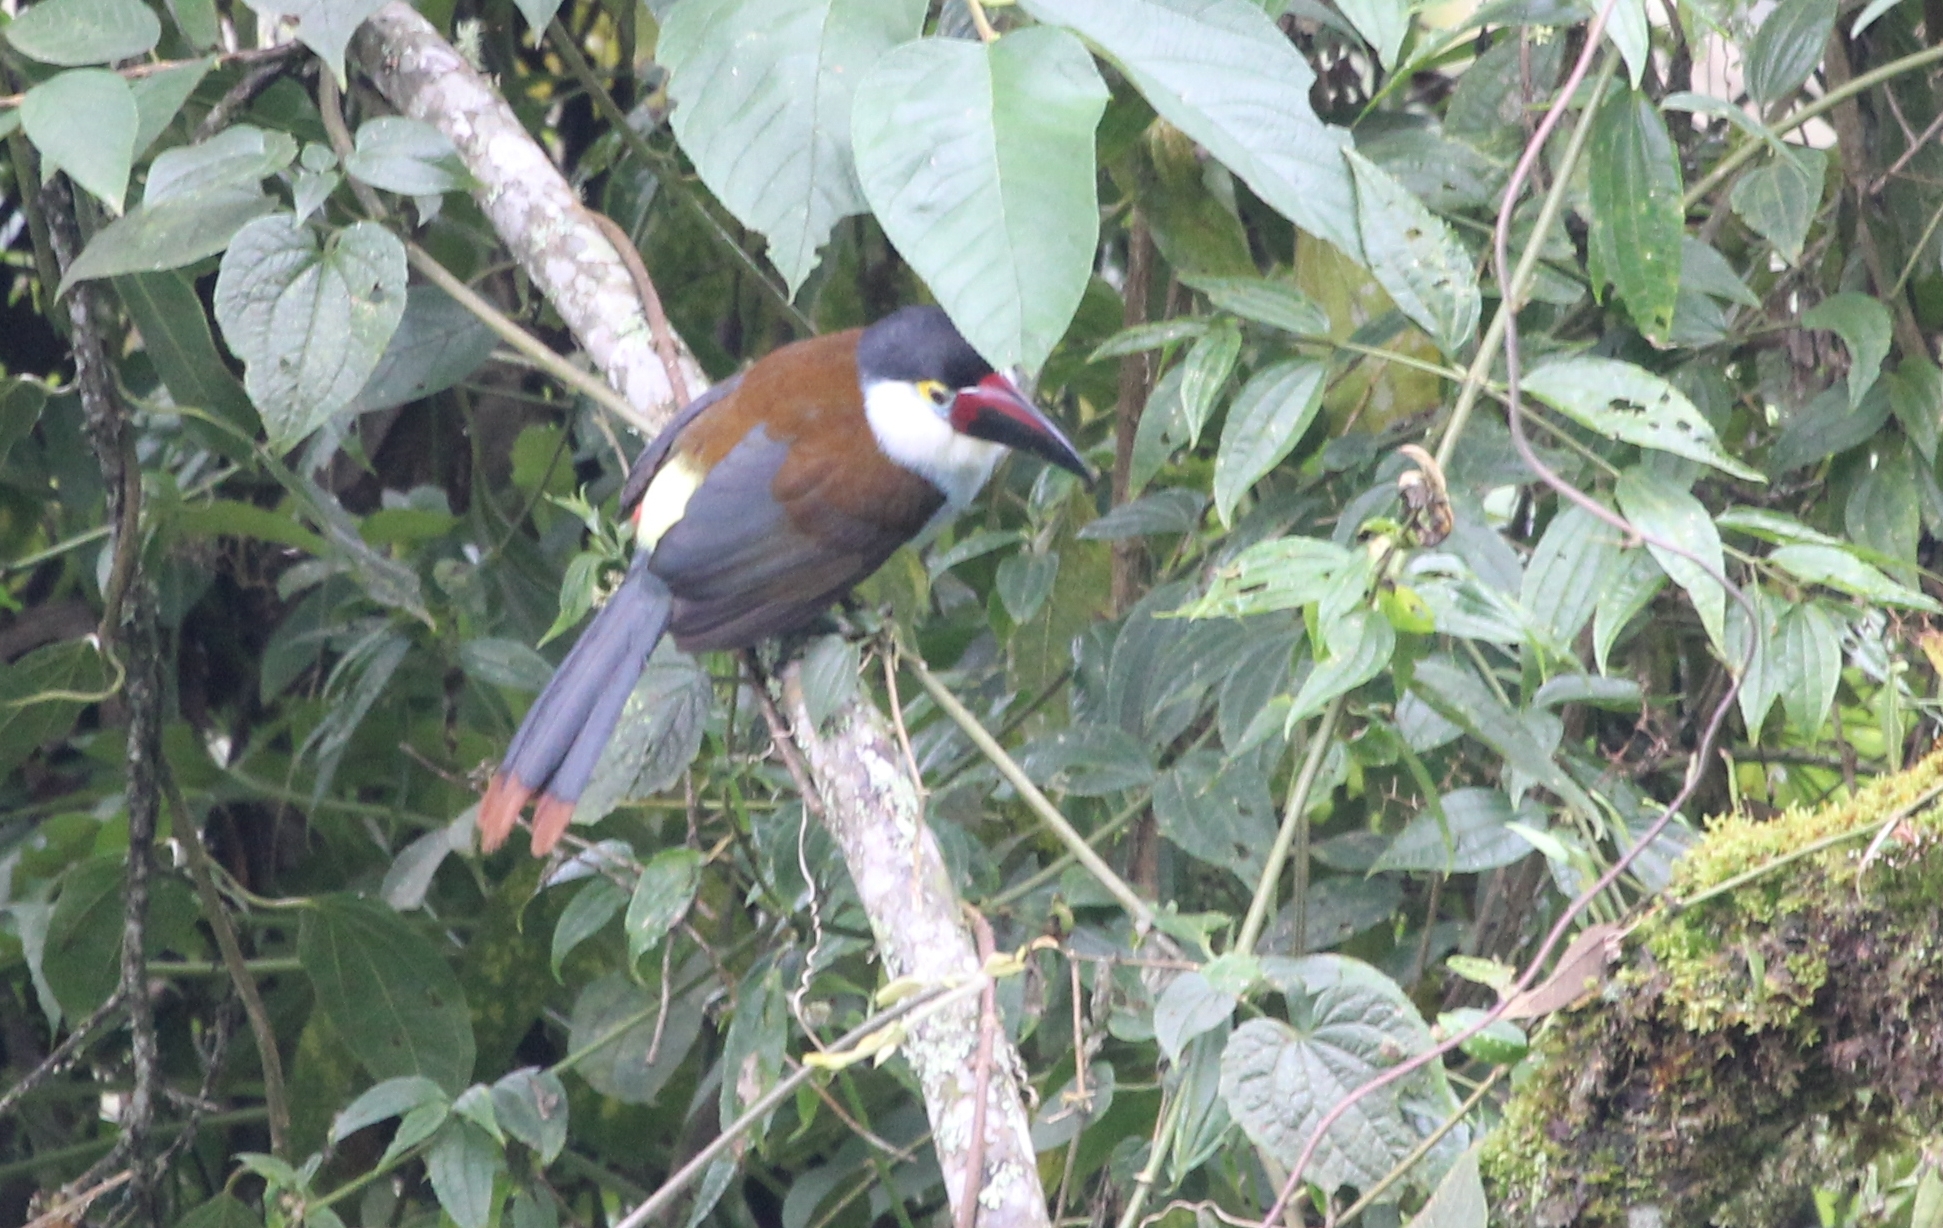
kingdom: Animalia
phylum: Chordata
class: Aves
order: Piciformes
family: Ramphastidae
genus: Andigena
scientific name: Andigena nigrirostris
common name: Black-billed mountain toucan
